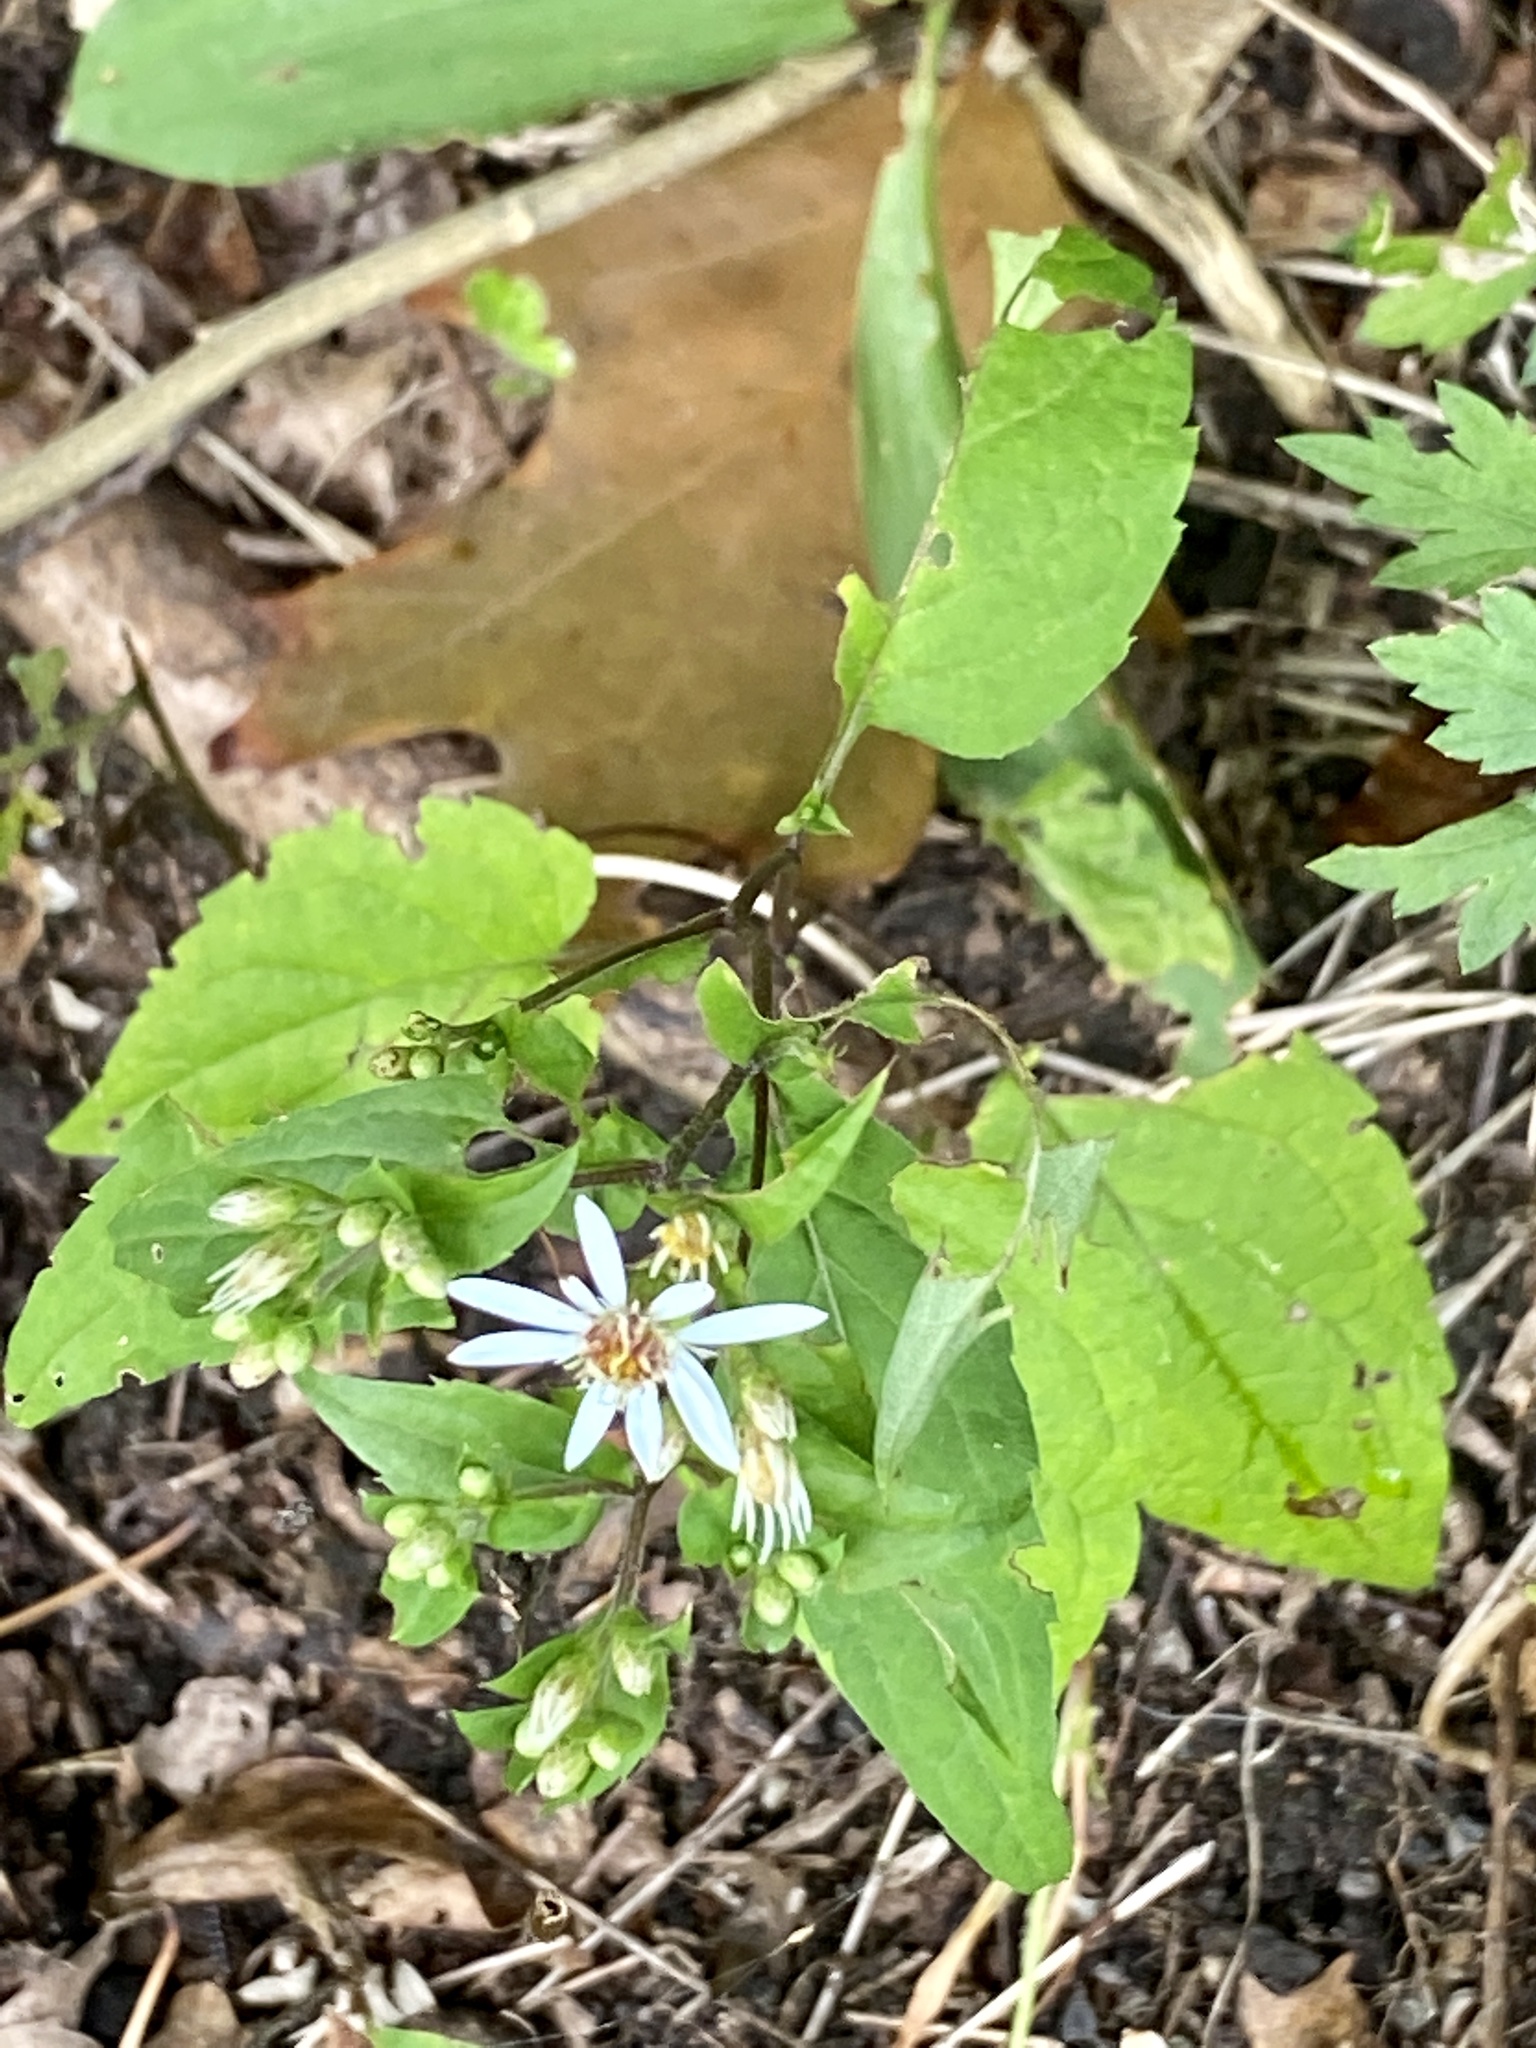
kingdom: Plantae
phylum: Tracheophyta
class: Magnoliopsida
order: Asterales
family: Asteraceae
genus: Eurybia
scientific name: Eurybia divaricata
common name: White wood aster
